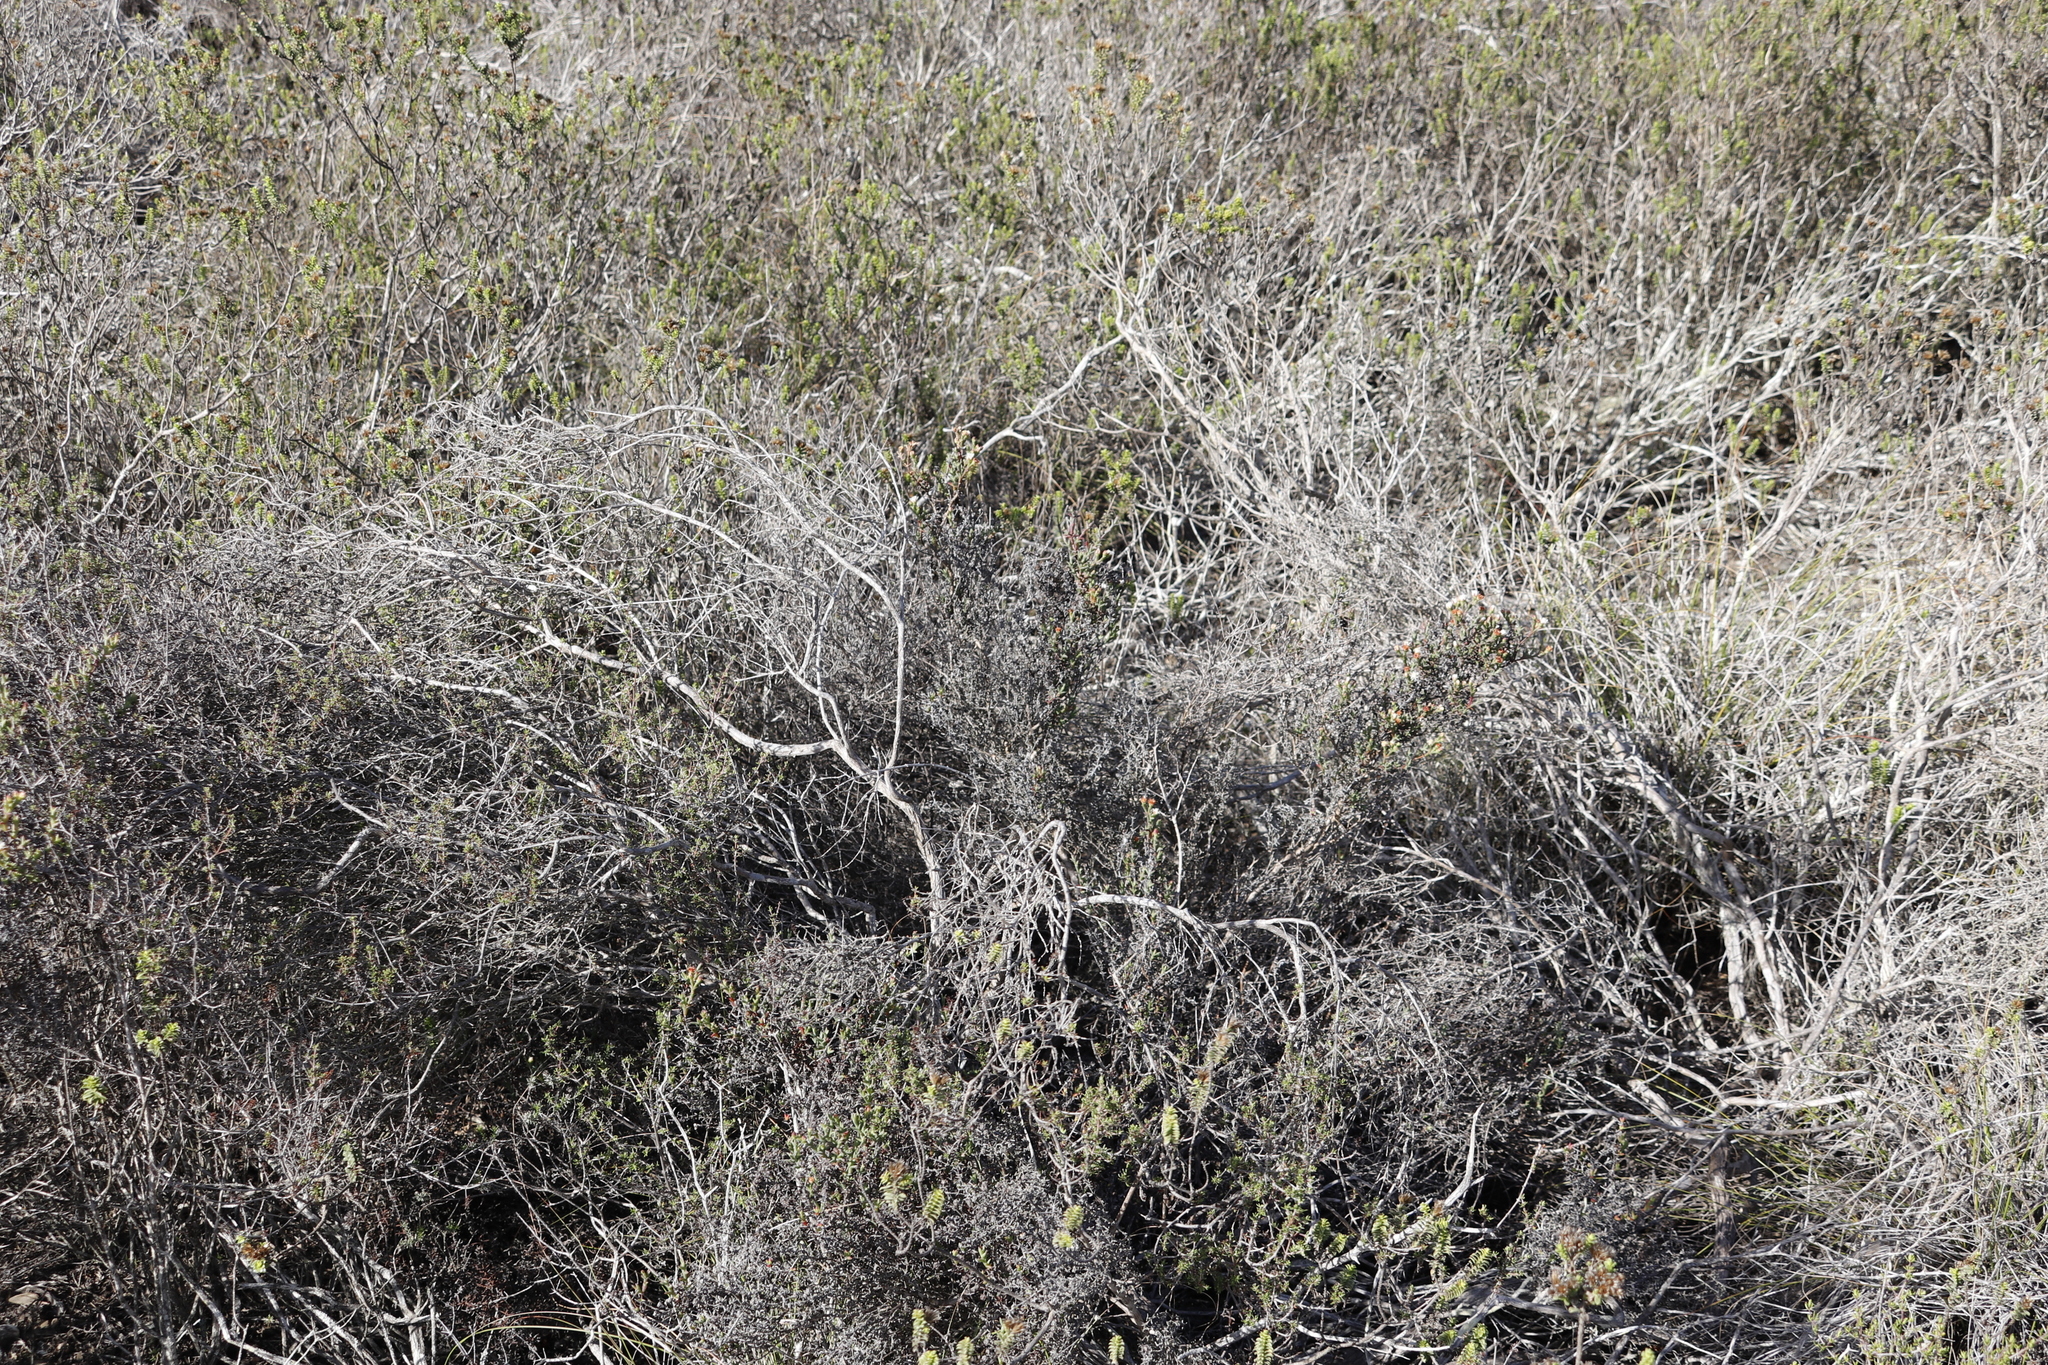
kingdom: Plantae
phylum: Tracheophyta
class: Magnoliopsida
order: Caryophyllales
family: Aizoaceae
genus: Ruschia
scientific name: Ruschia tenella
